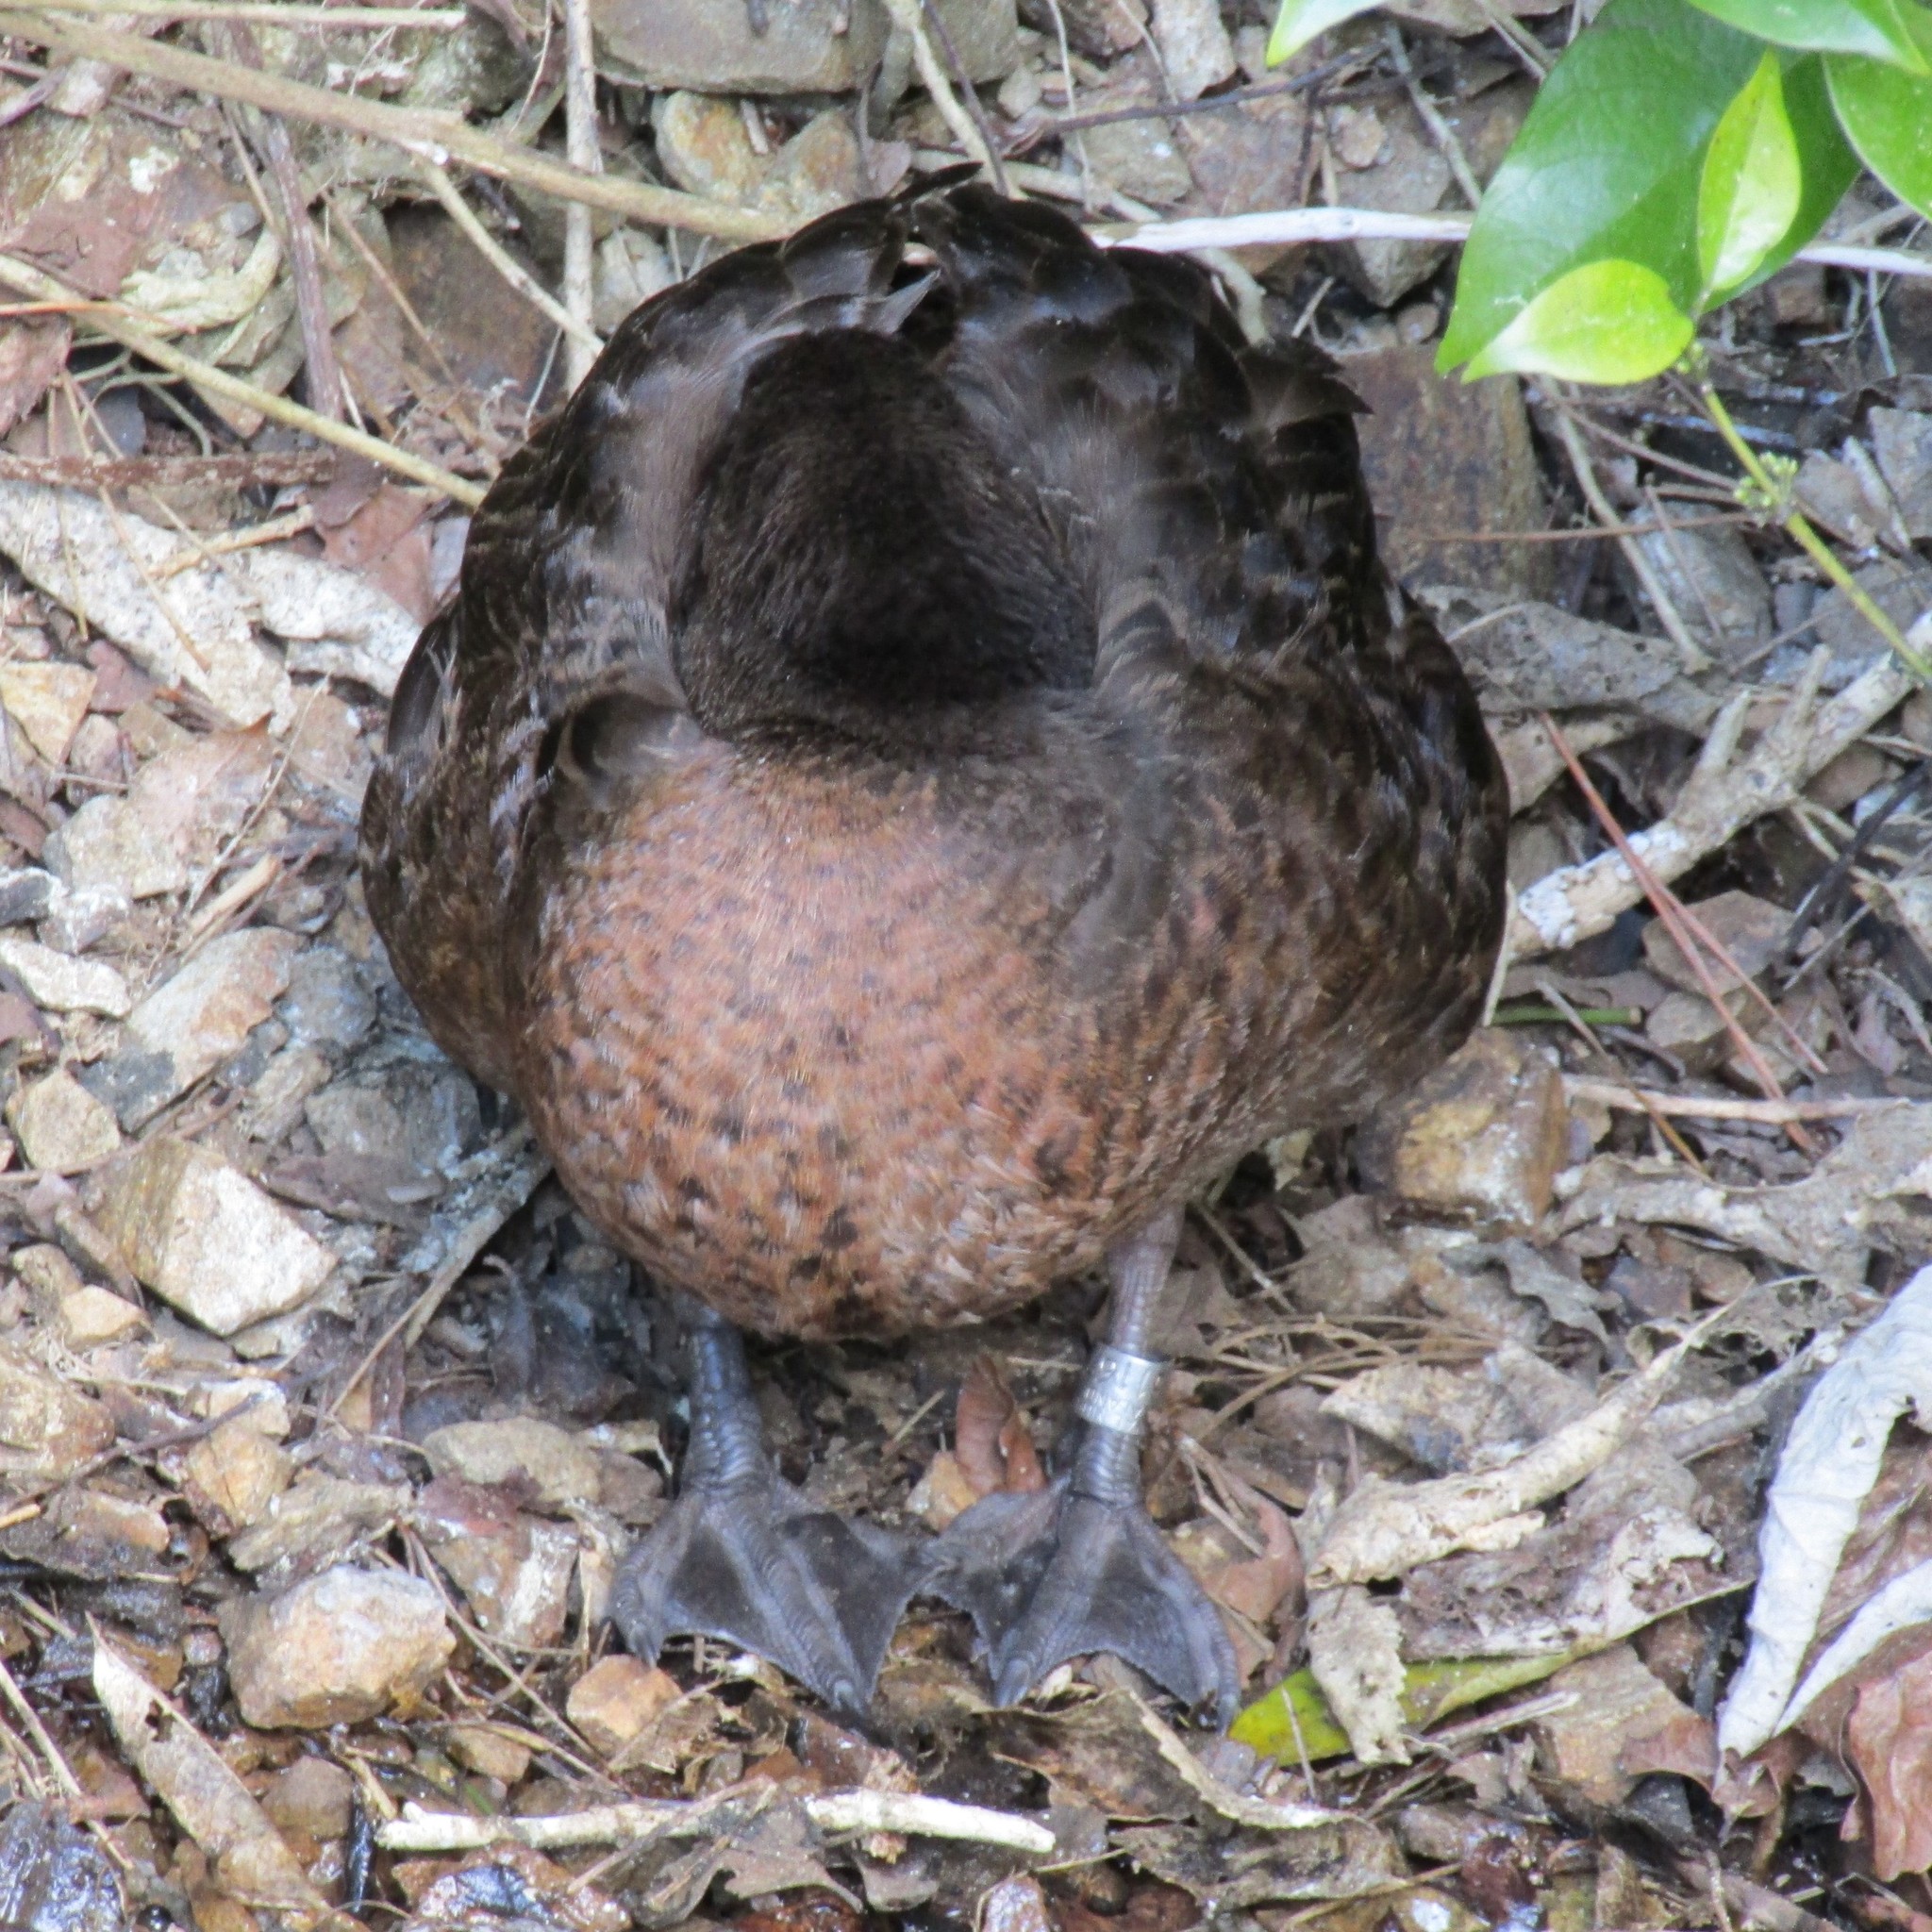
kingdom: Animalia
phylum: Chordata
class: Aves
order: Anseriformes
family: Anatidae
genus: Anas
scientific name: Anas chlorotis
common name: Brown teal
